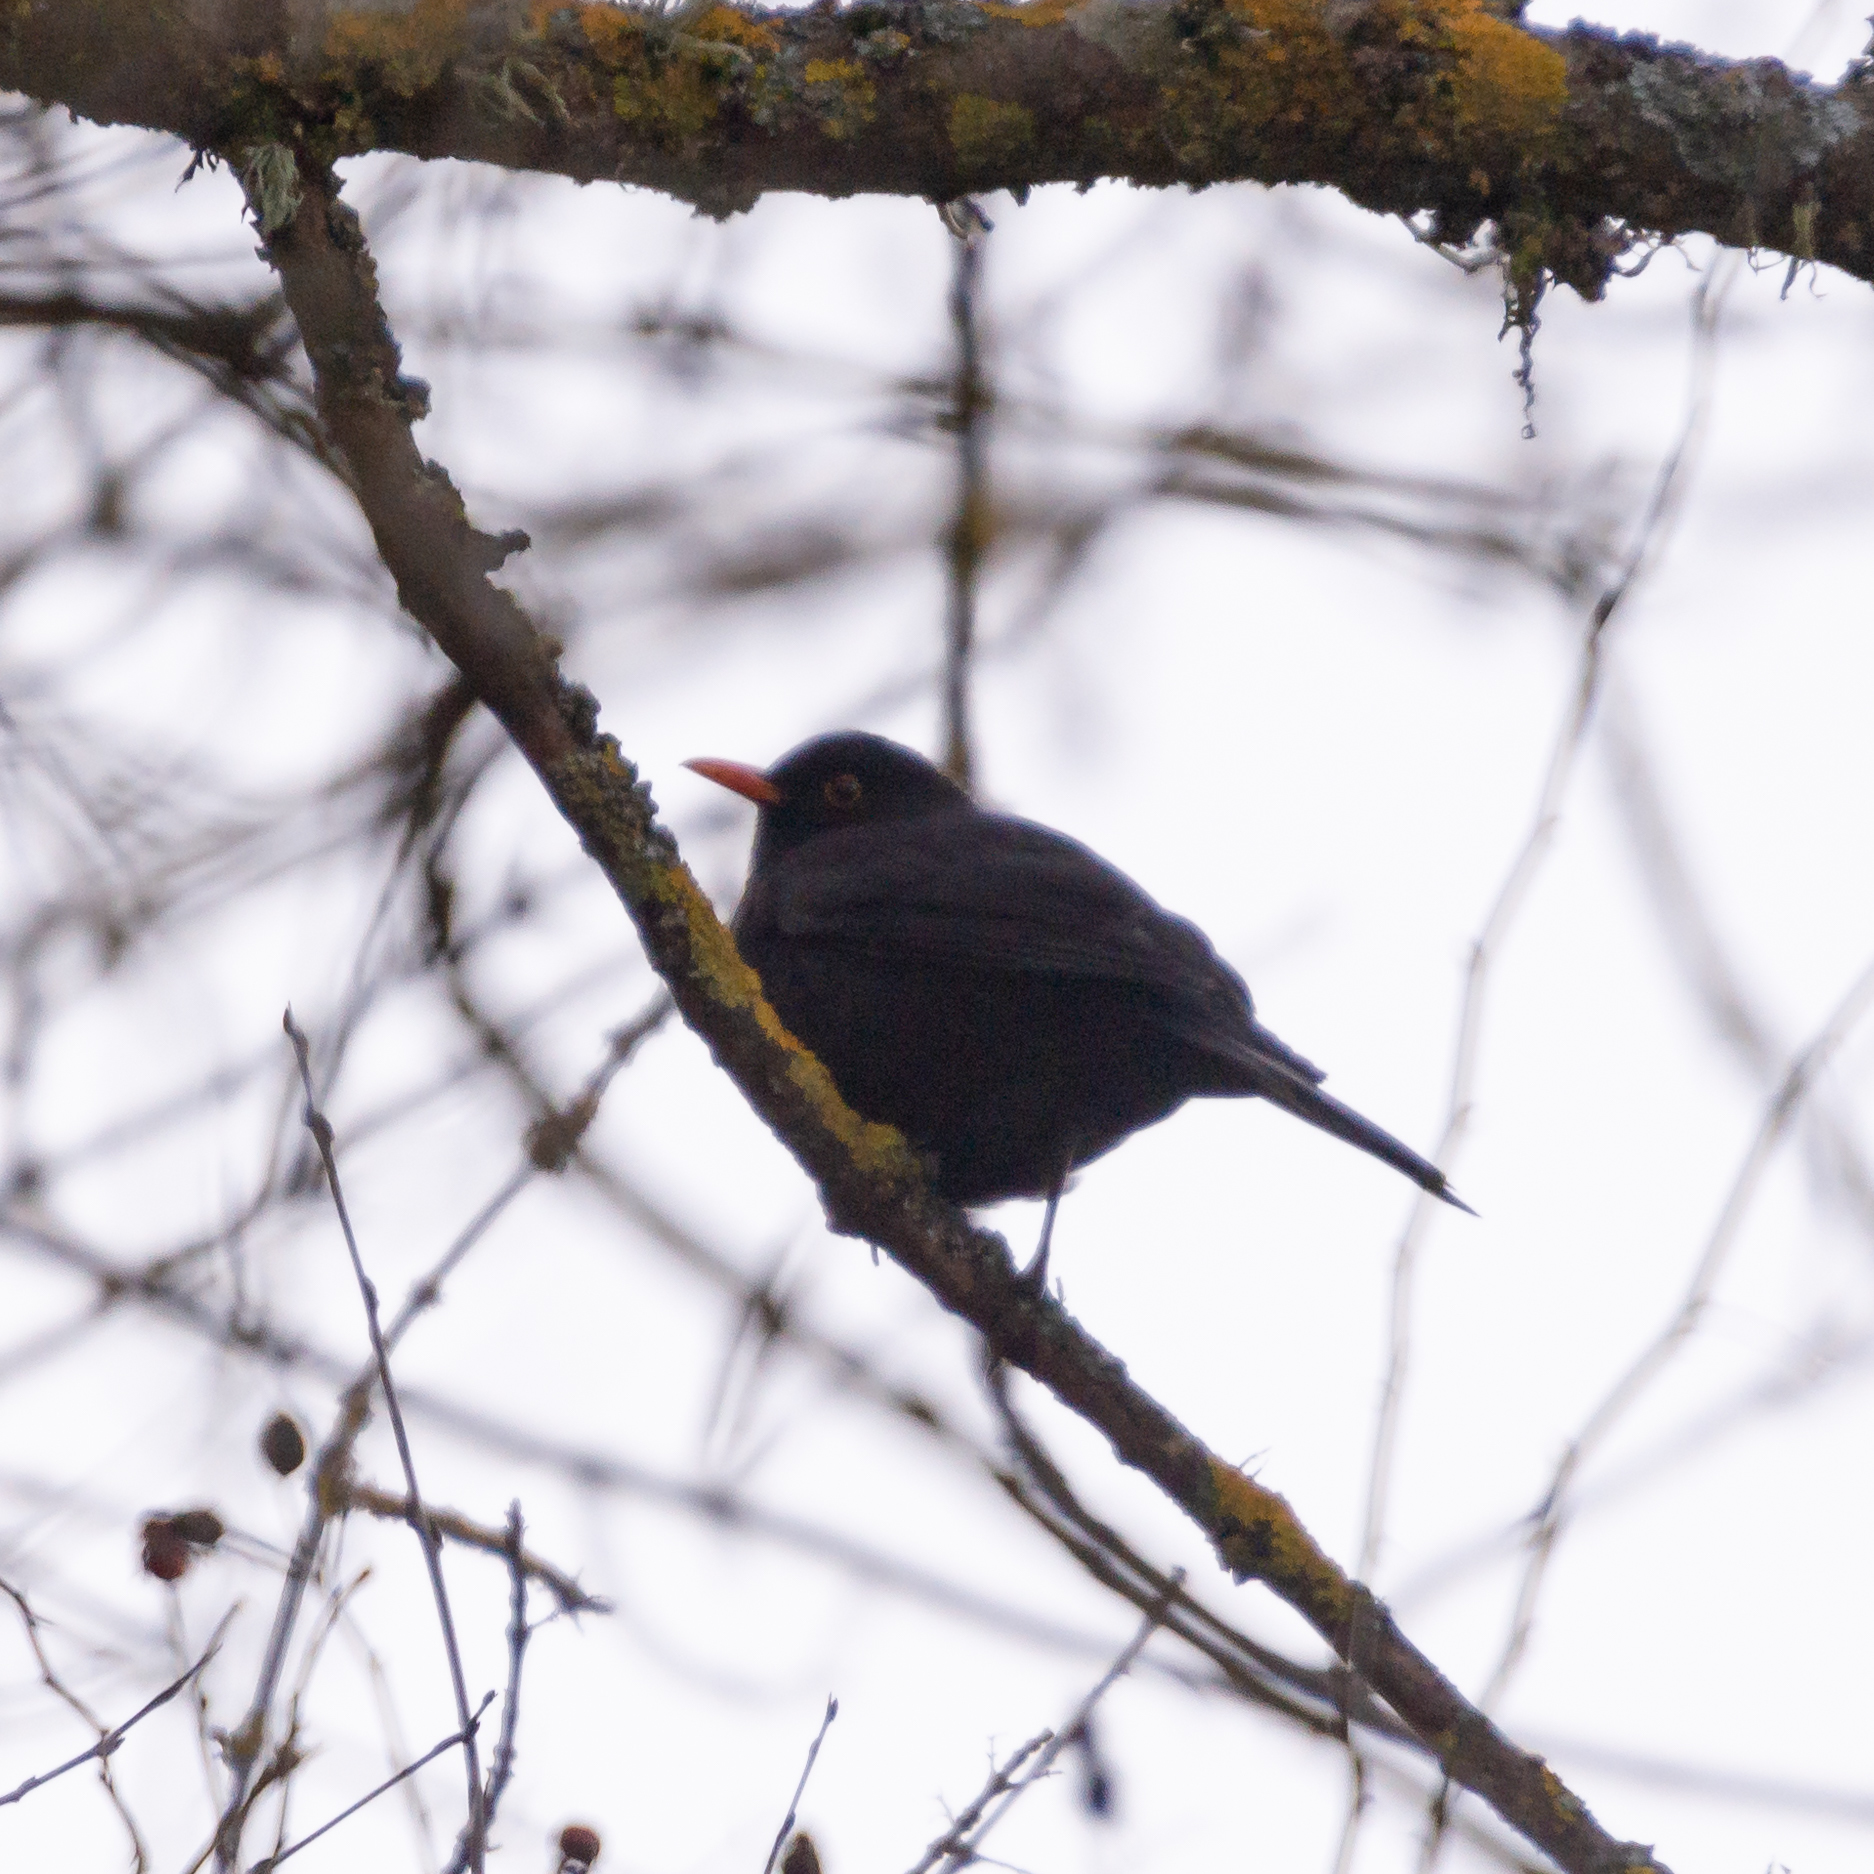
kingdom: Animalia
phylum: Chordata
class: Aves
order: Passeriformes
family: Turdidae
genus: Turdus
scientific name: Turdus merula
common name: Common blackbird
